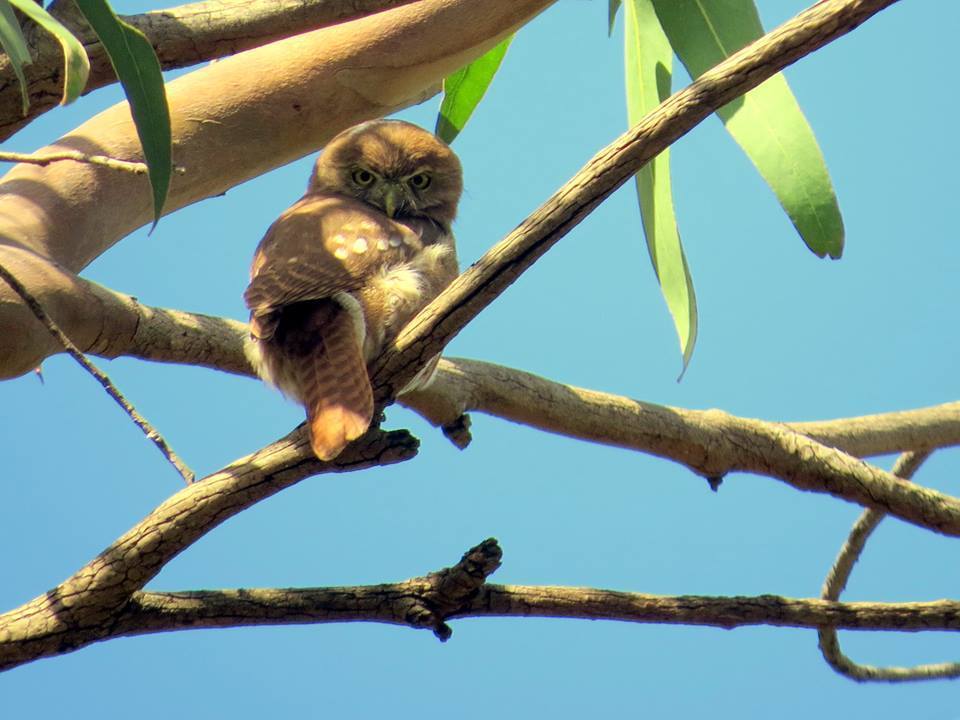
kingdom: Animalia
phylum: Chordata
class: Aves
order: Strigiformes
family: Strigidae
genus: Glaucidium
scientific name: Glaucidium brasilianum
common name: Ferruginous pygmy-owl
